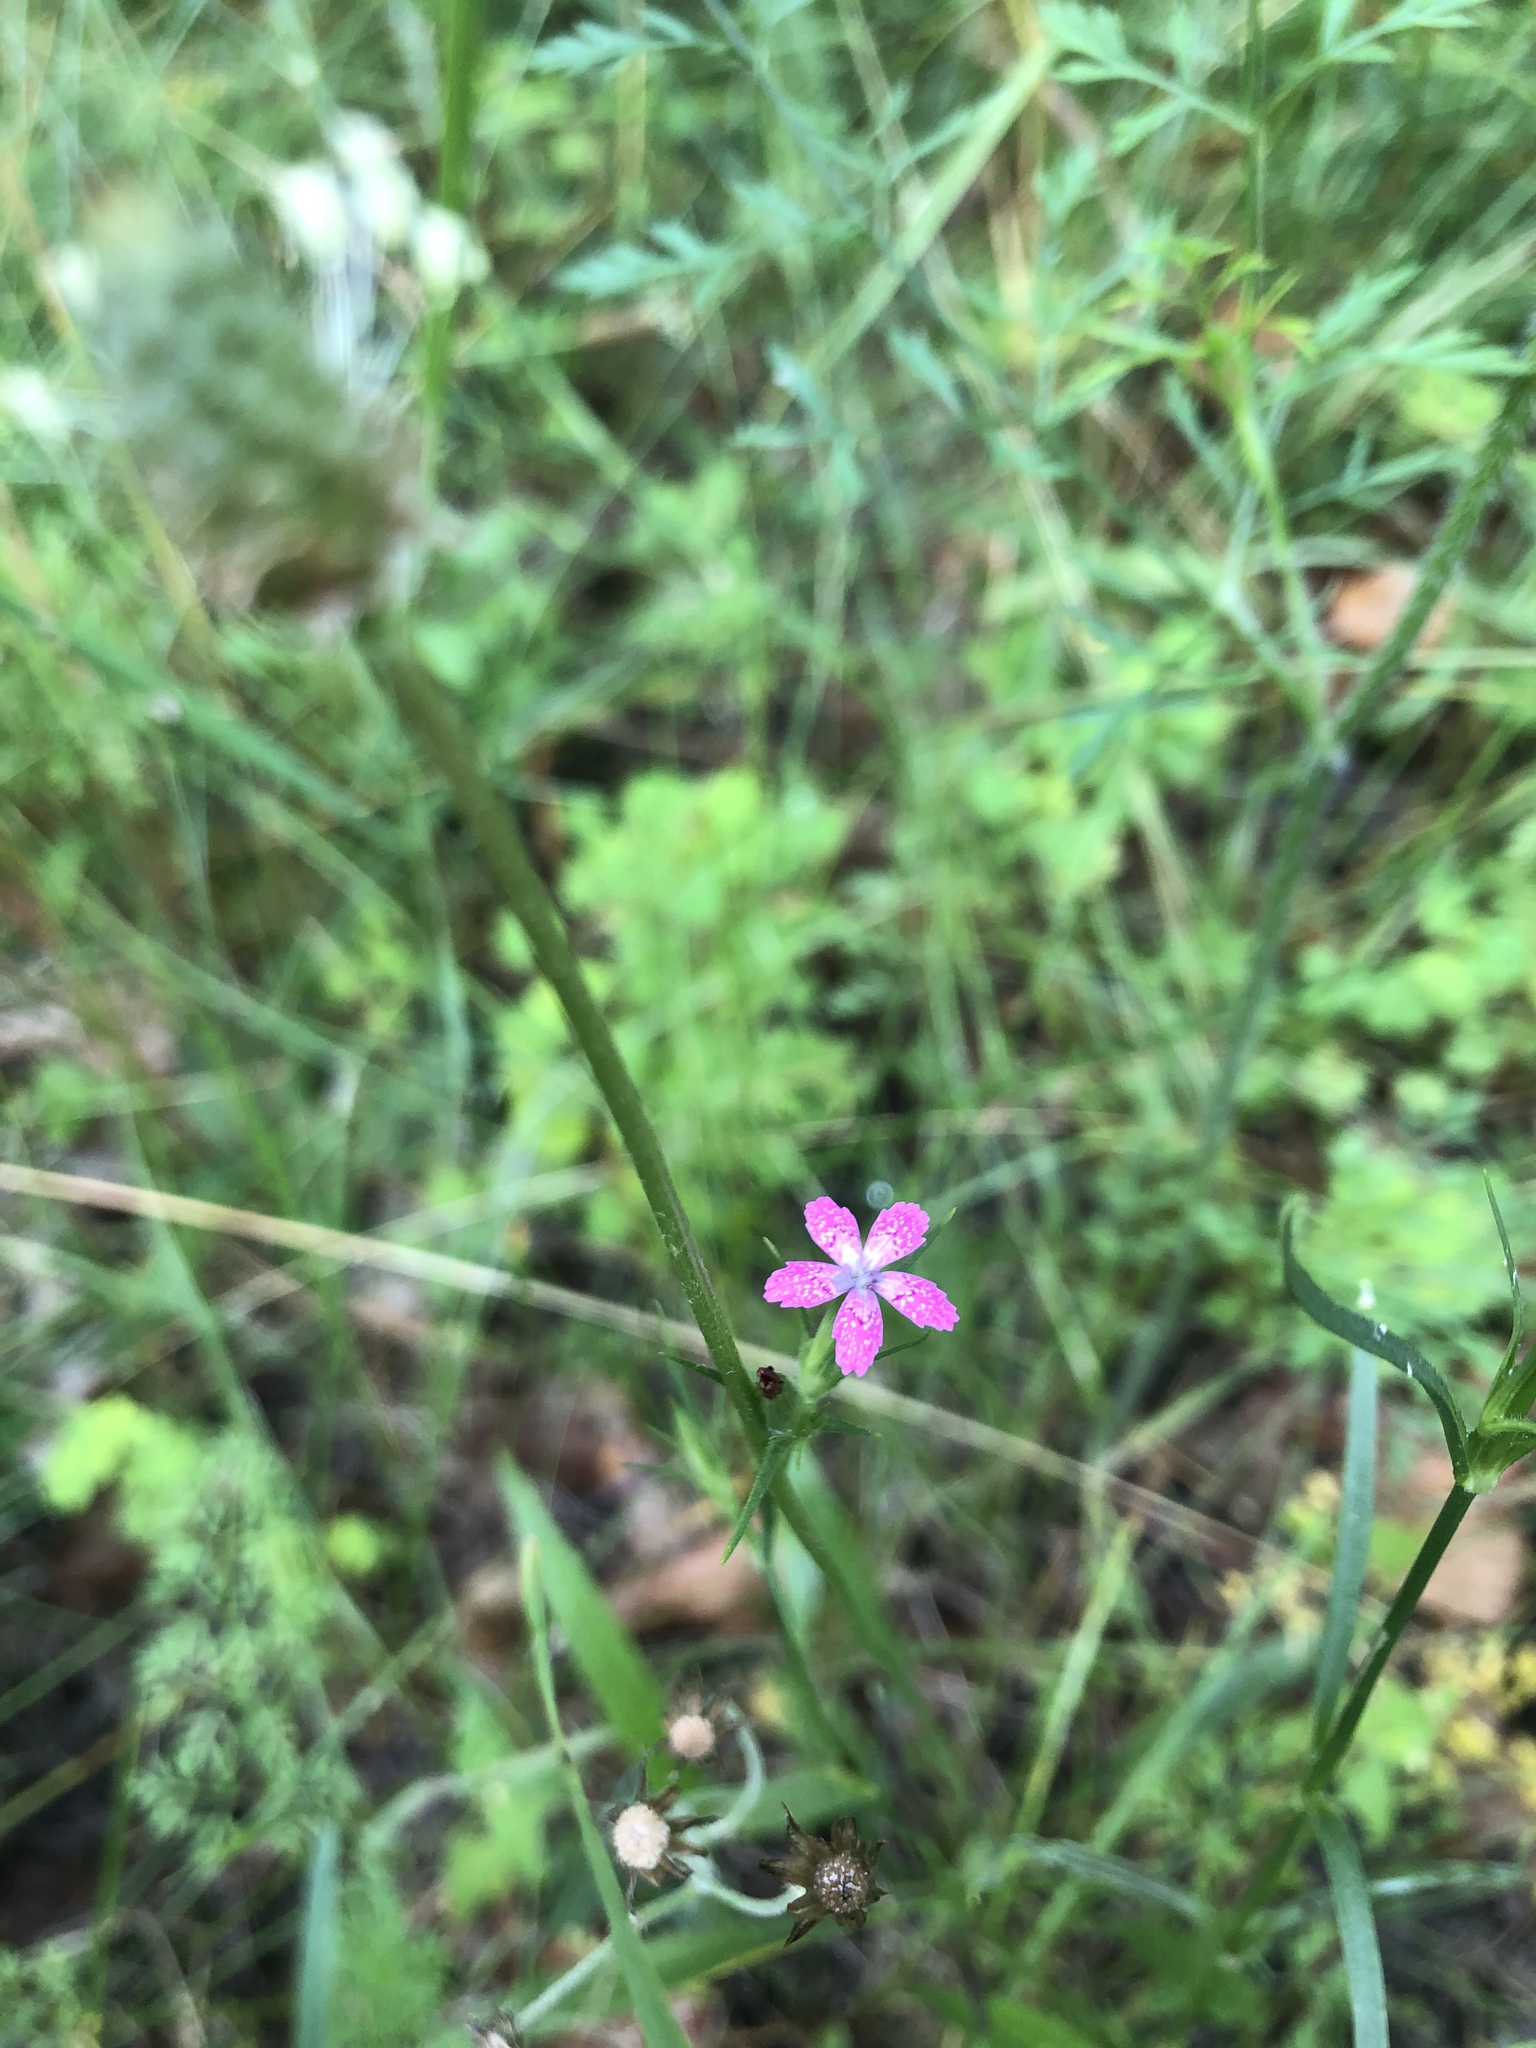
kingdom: Plantae
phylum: Tracheophyta
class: Magnoliopsida
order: Caryophyllales
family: Caryophyllaceae
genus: Dianthus
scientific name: Dianthus armeria
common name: Deptford pink
